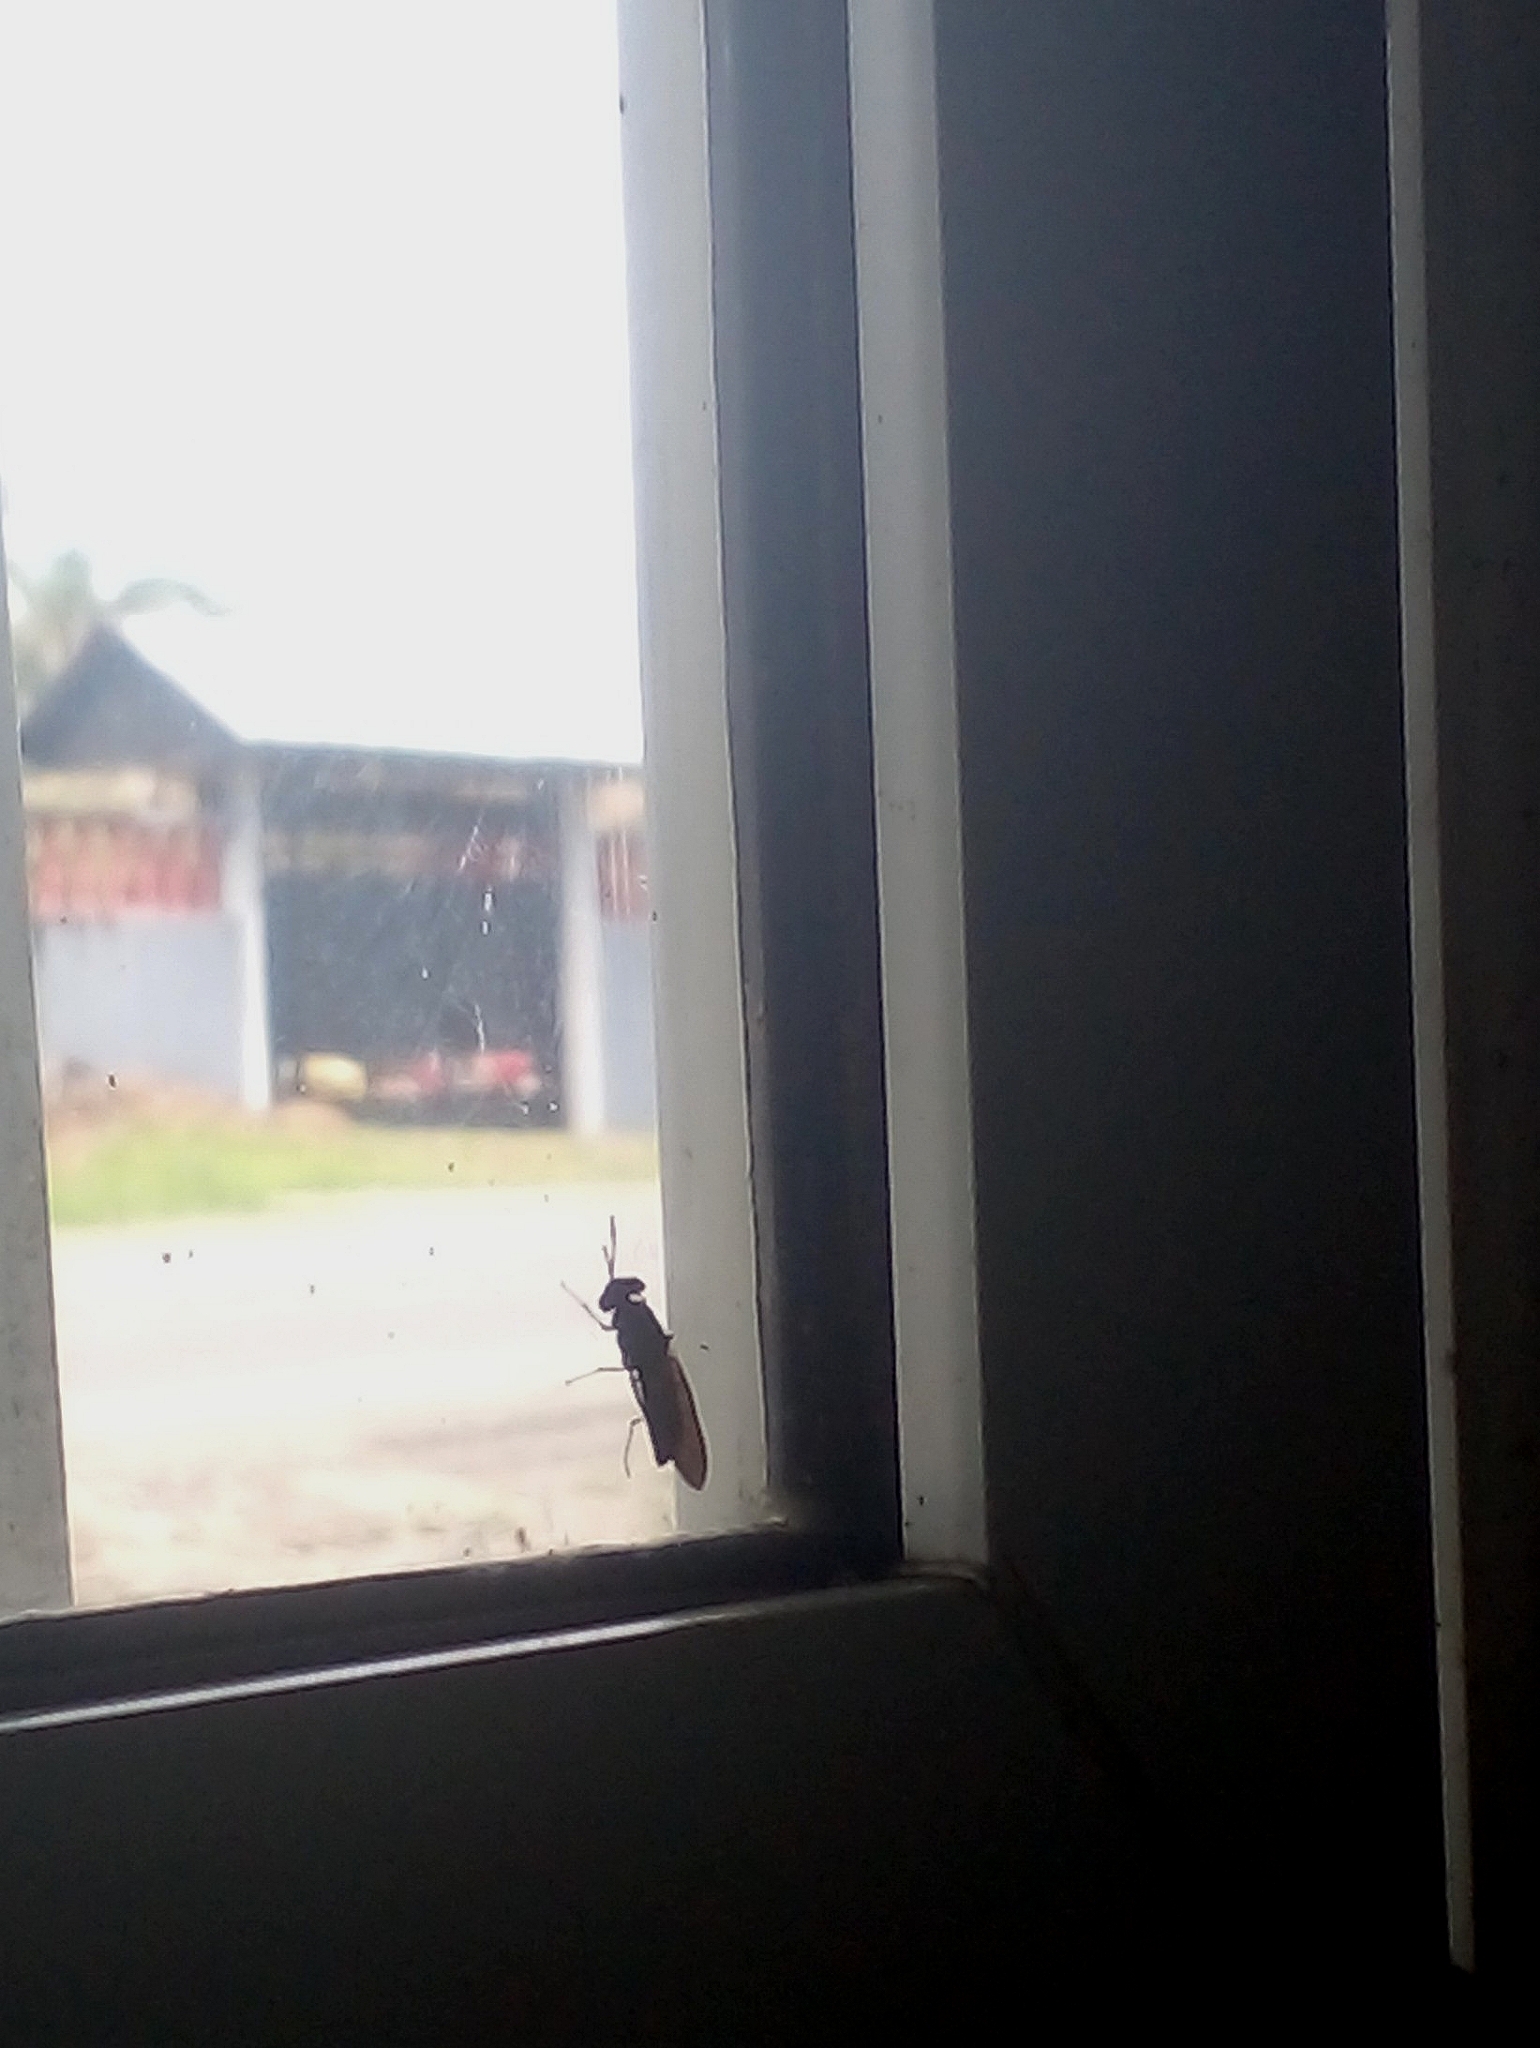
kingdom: Animalia
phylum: Arthropoda
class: Insecta
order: Diptera
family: Stratiomyidae
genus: Hermetia
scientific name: Hermetia illucens
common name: Black soldier fly
